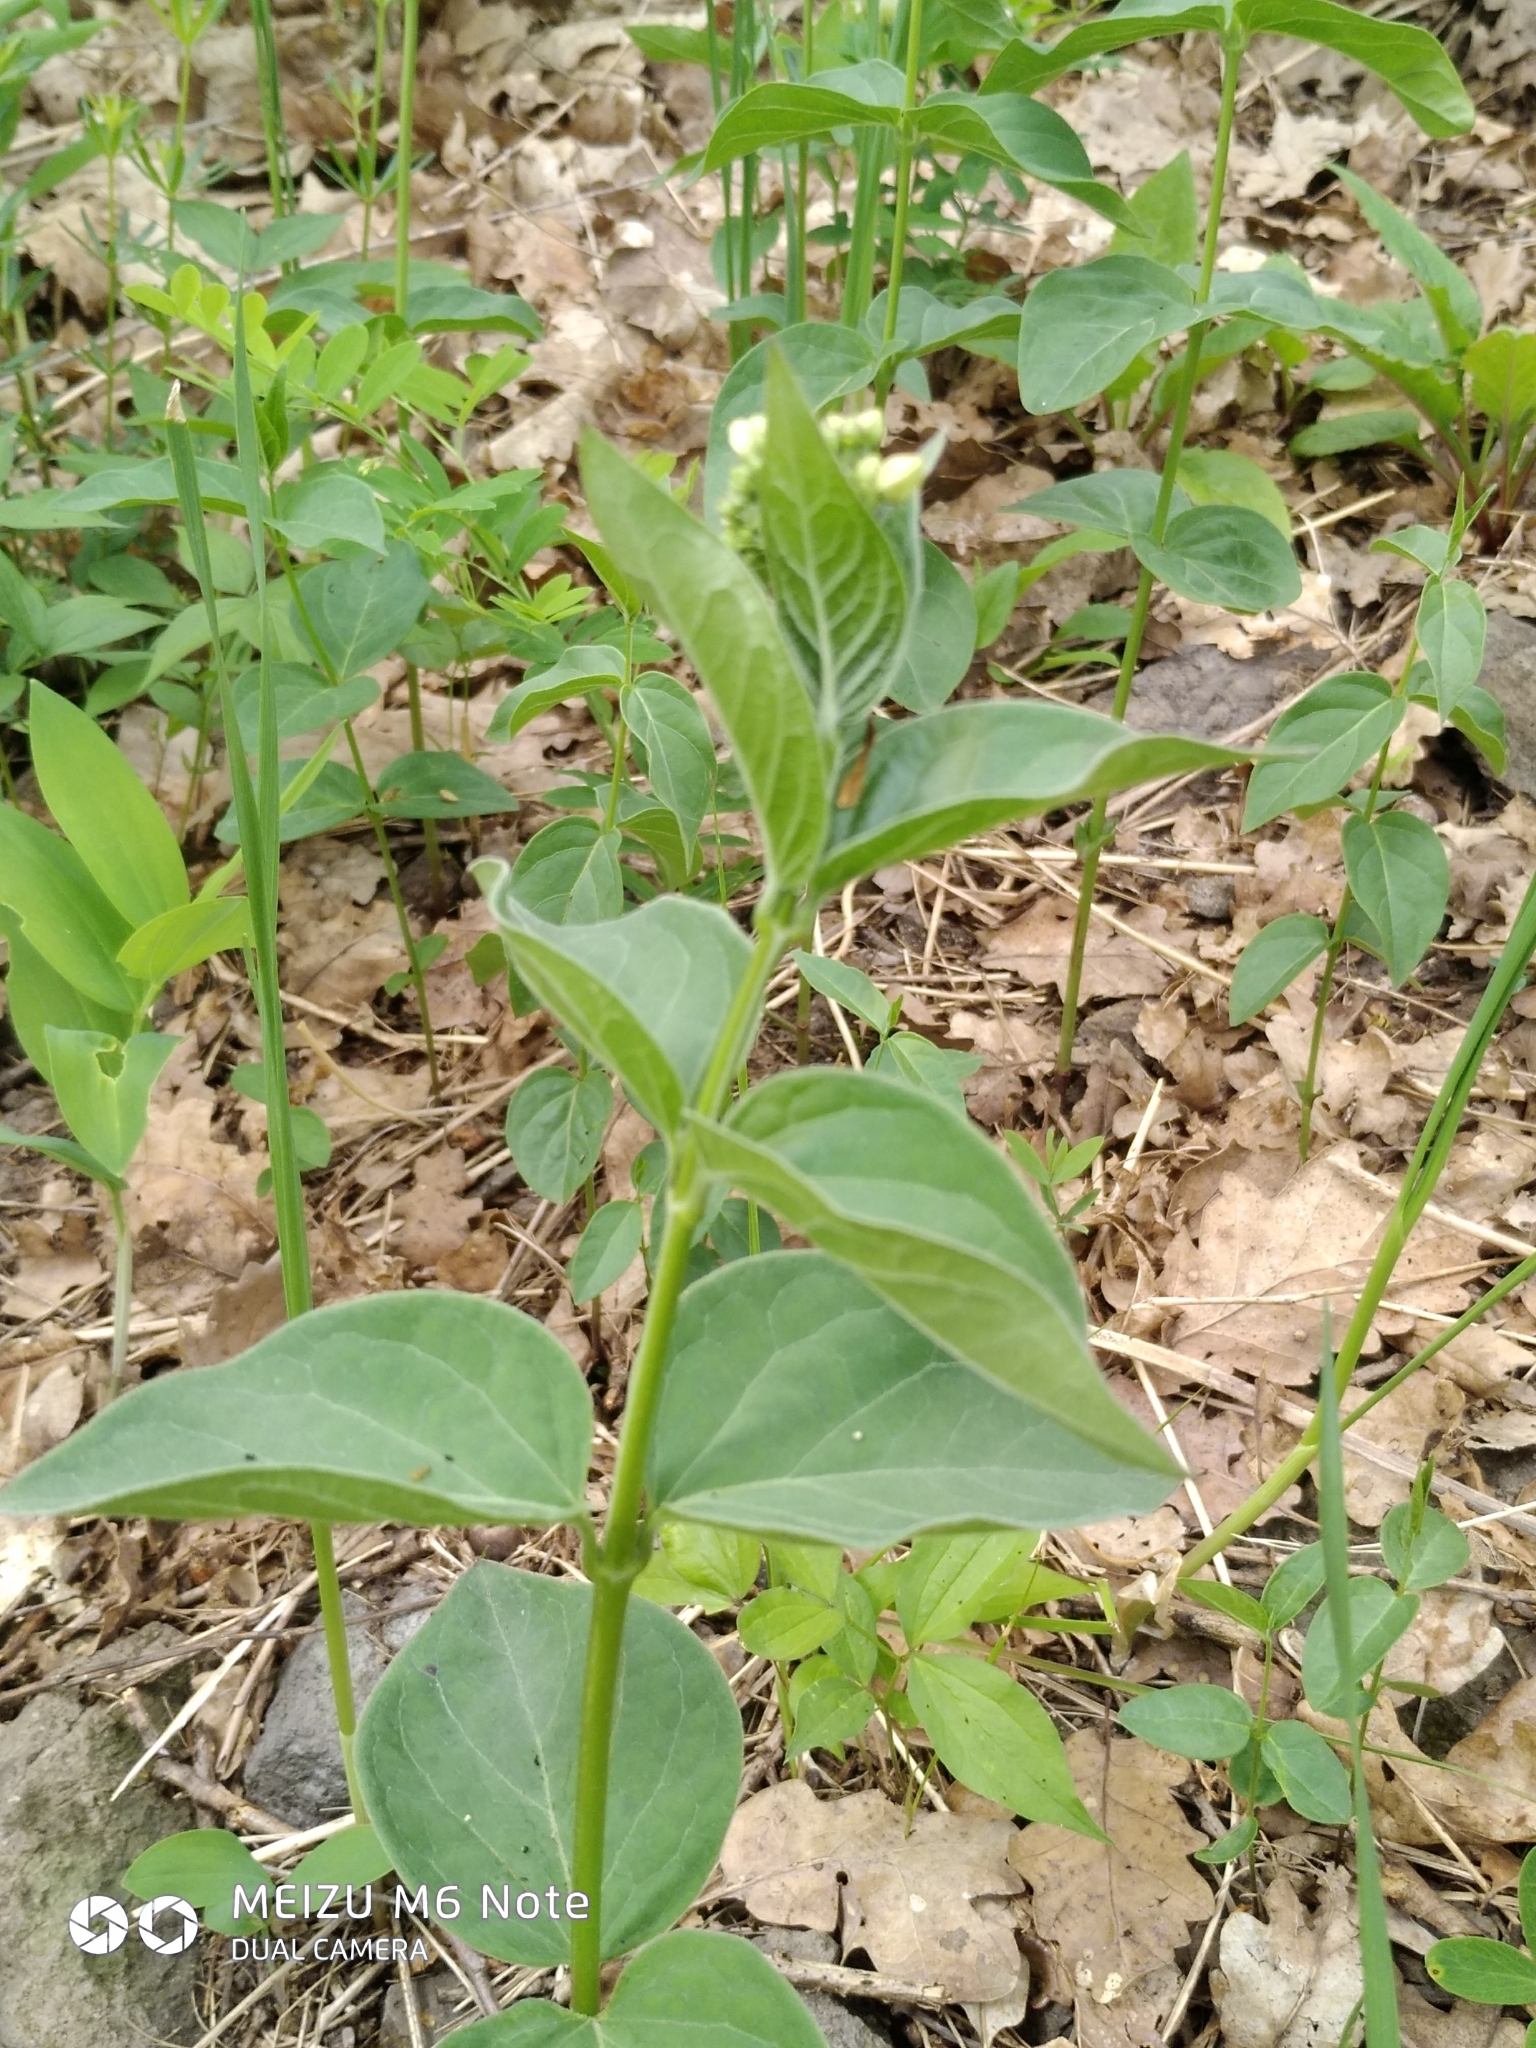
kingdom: Plantae
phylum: Tracheophyta
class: Magnoliopsida
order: Gentianales
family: Apocynaceae
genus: Vincetoxicum
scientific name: Vincetoxicum hirundinaria
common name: White swallowwort
